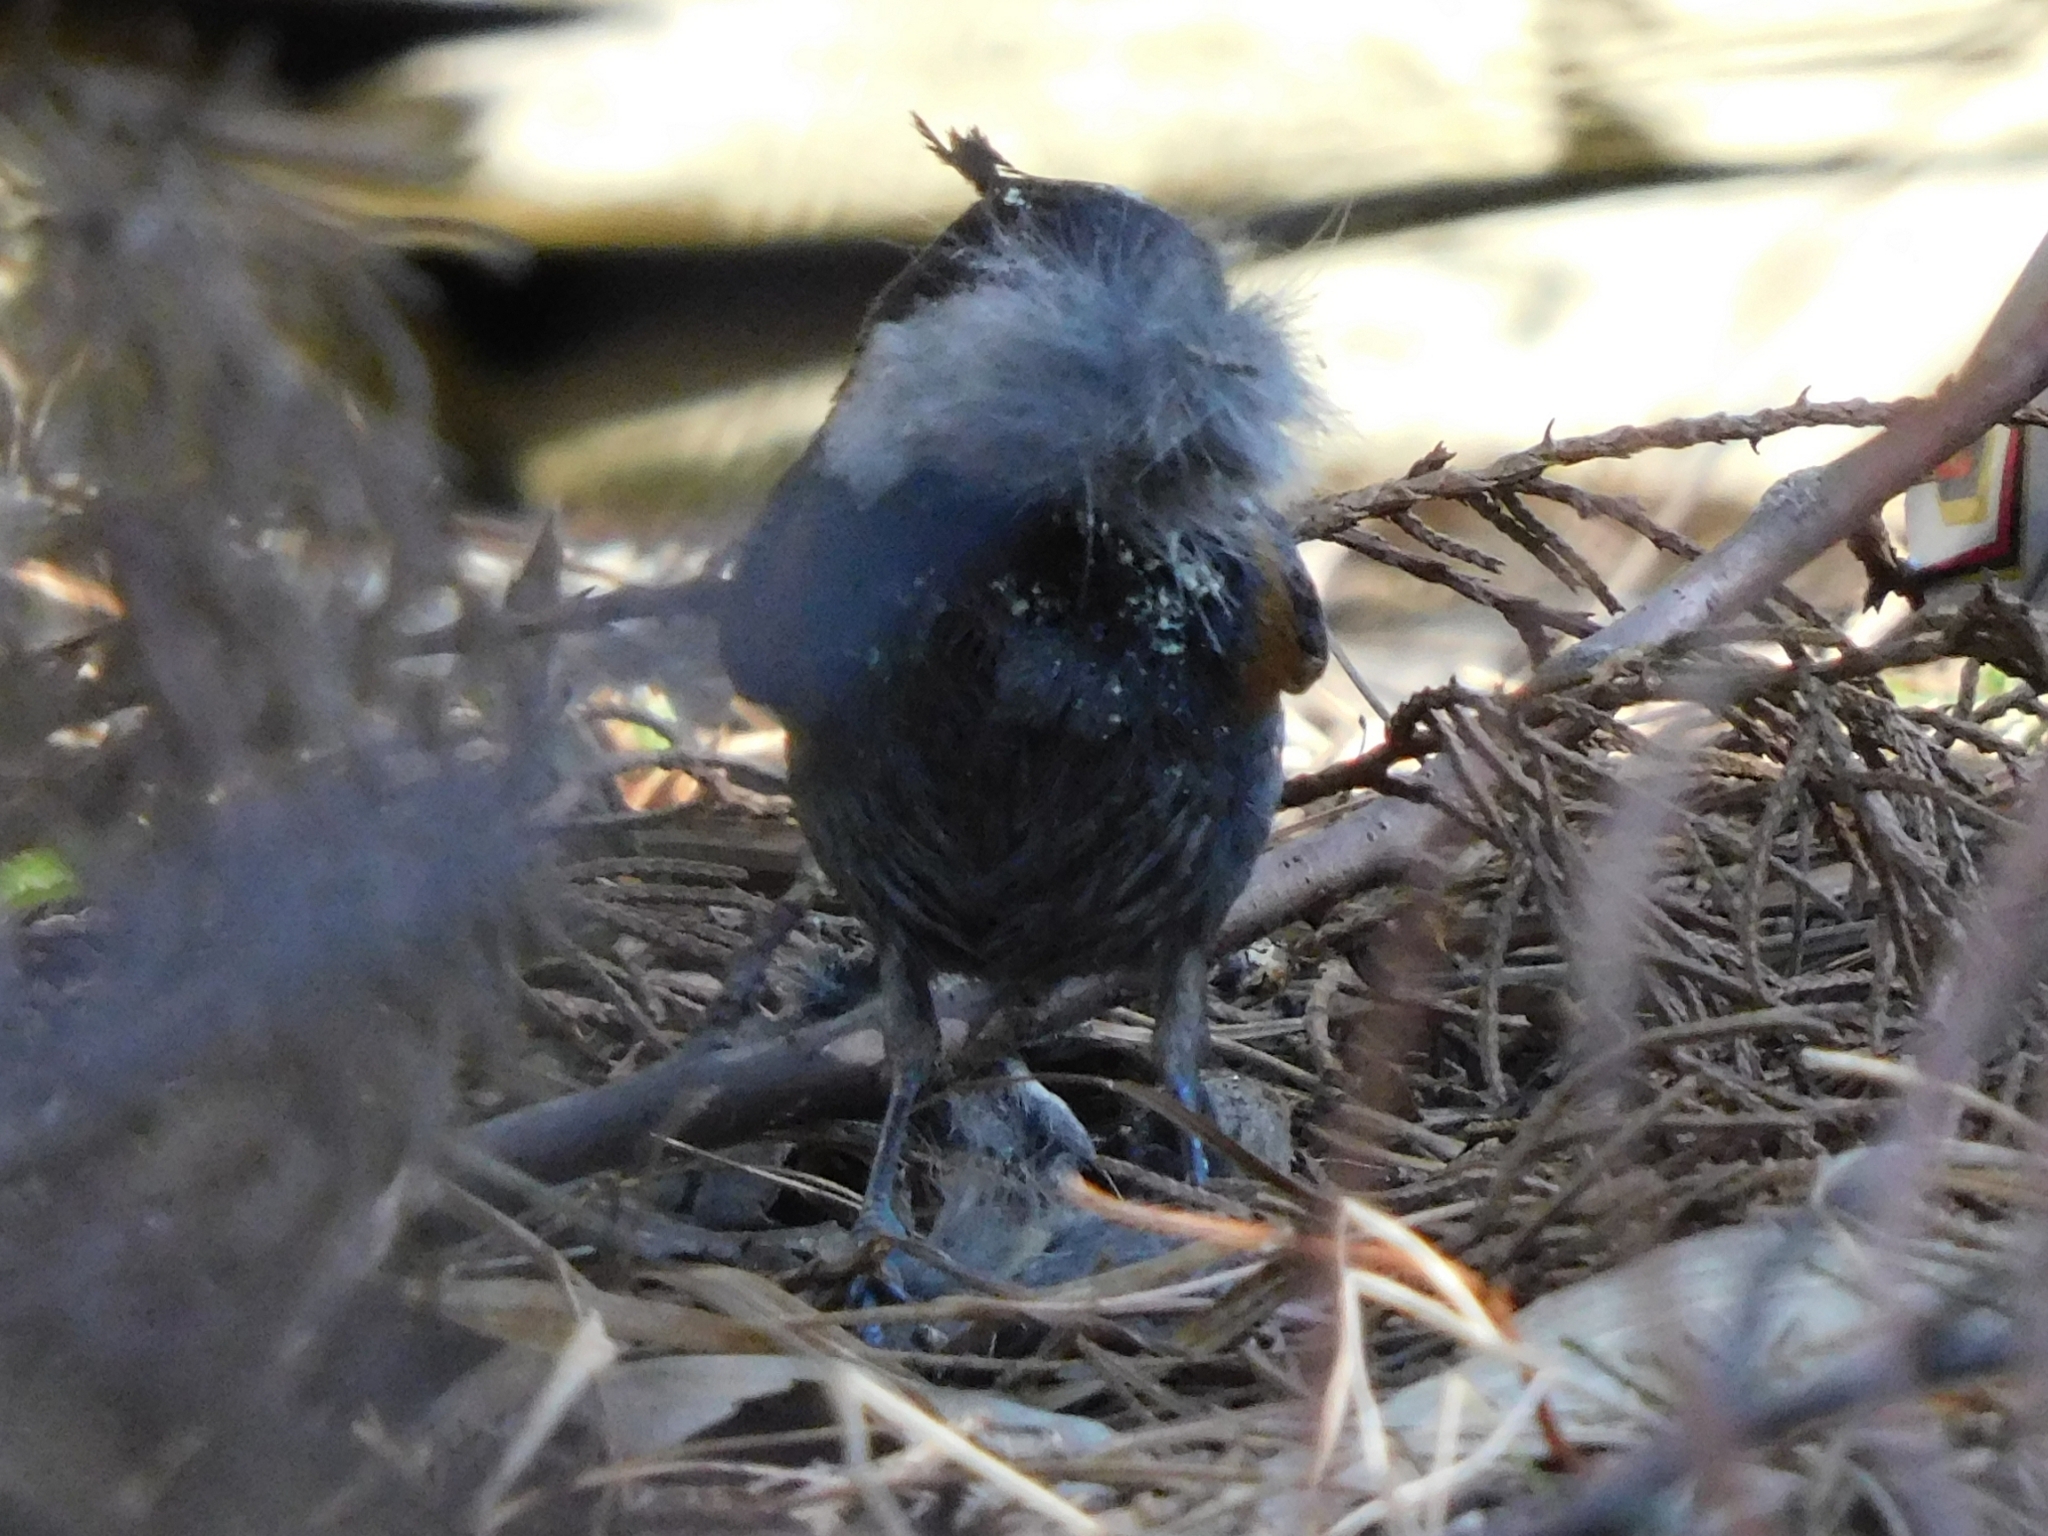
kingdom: Animalia
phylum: Chordata
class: Aves
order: Passeriformes
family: Paridae
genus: Periparus
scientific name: Periparus ater
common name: Coal tit
